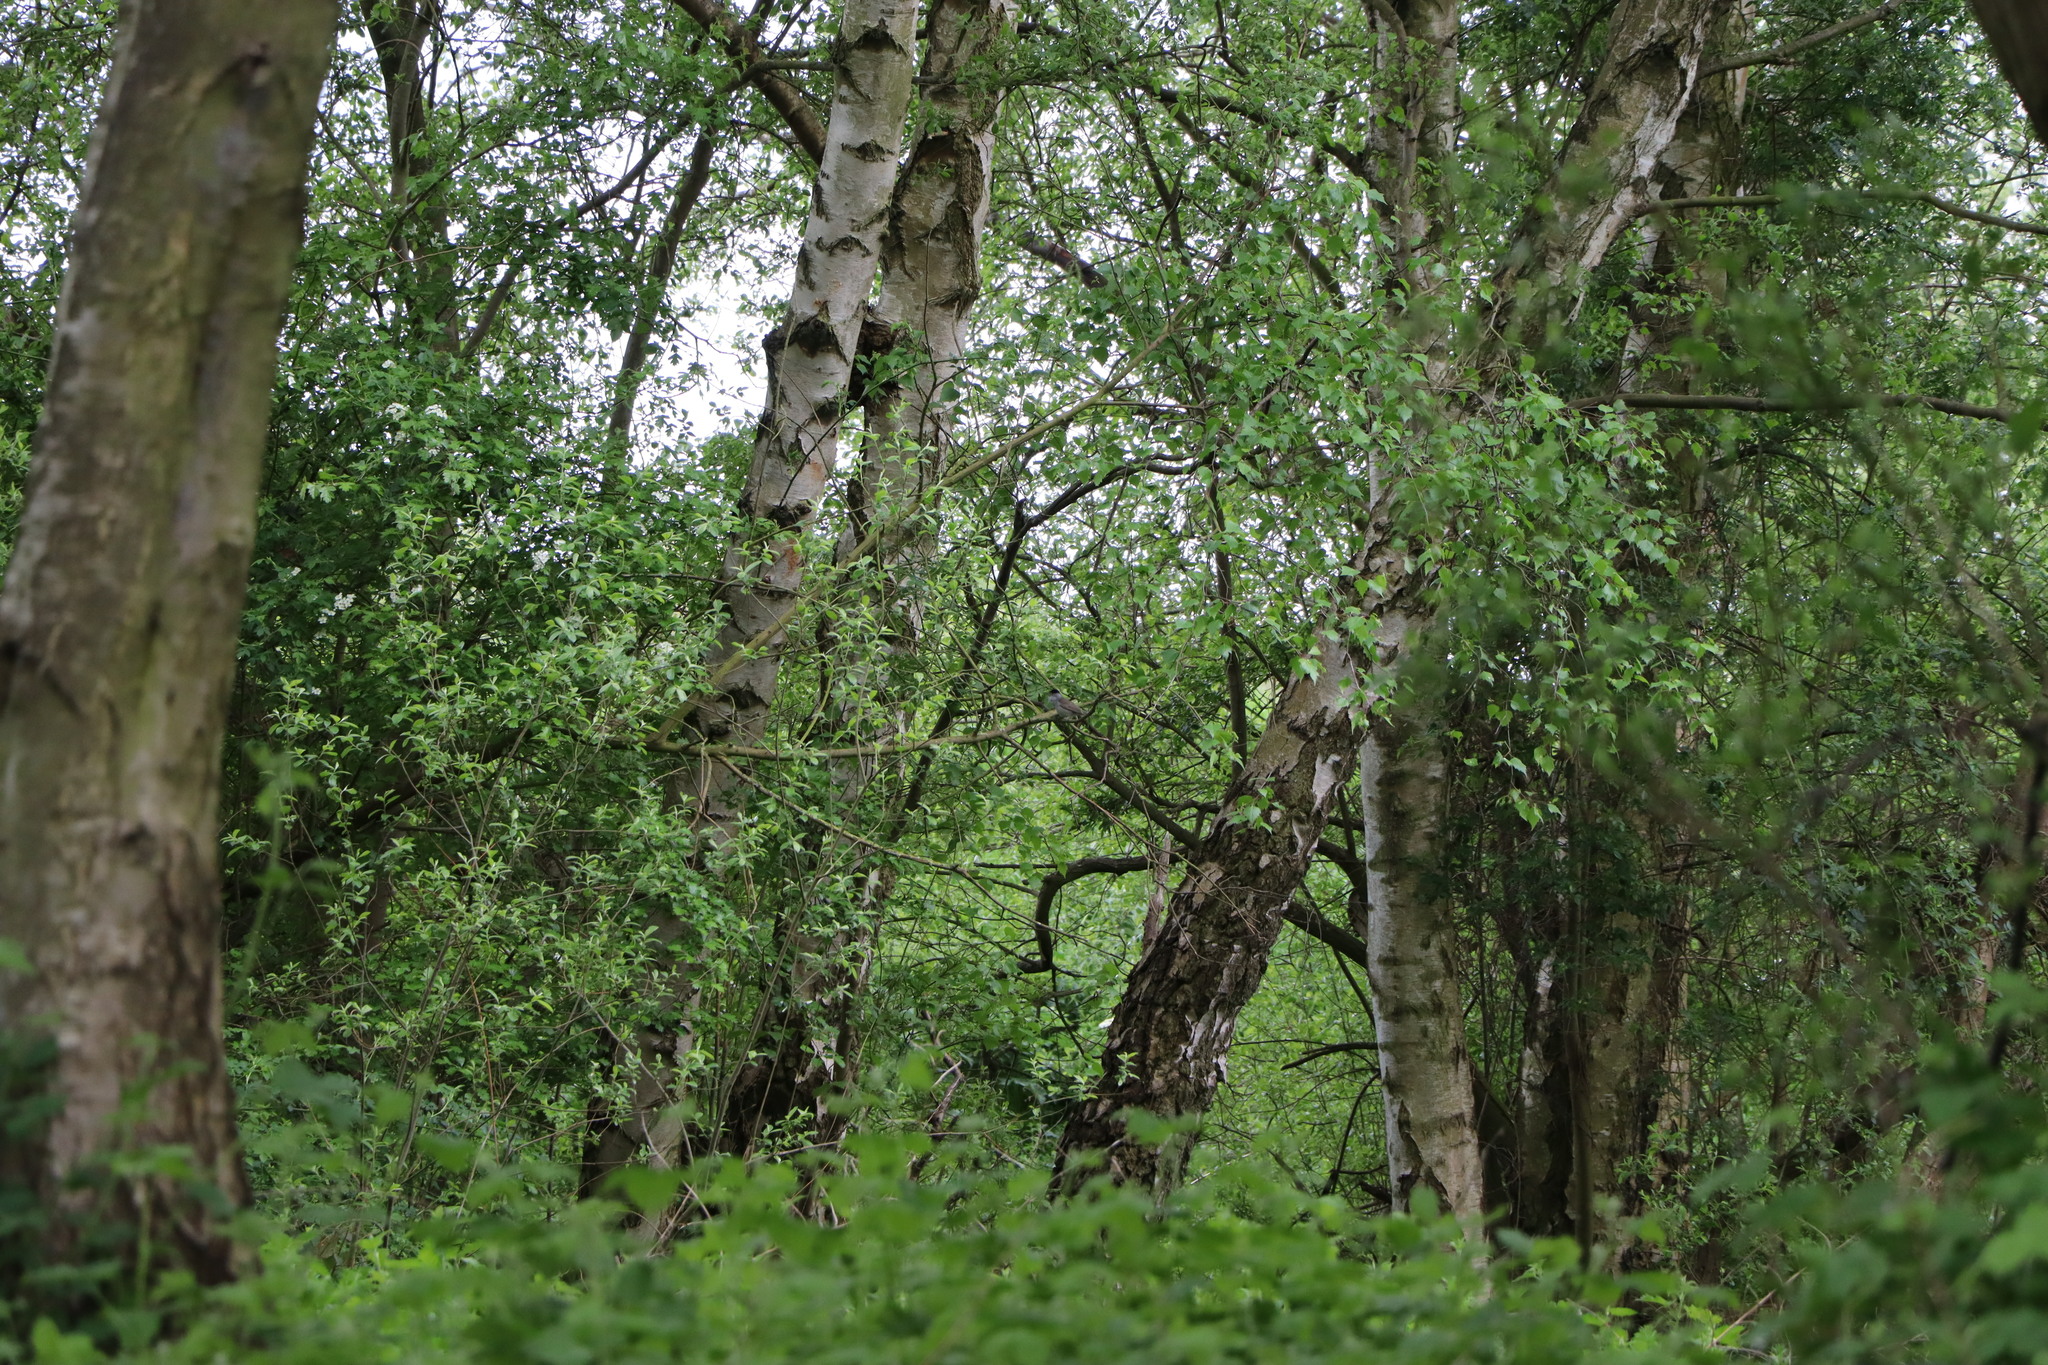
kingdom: Animalia
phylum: Chordata
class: Aves
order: Passeriformes
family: Sylviidae
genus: Sylvia
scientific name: Sylvia atricapilla
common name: Eurasian blackcap
